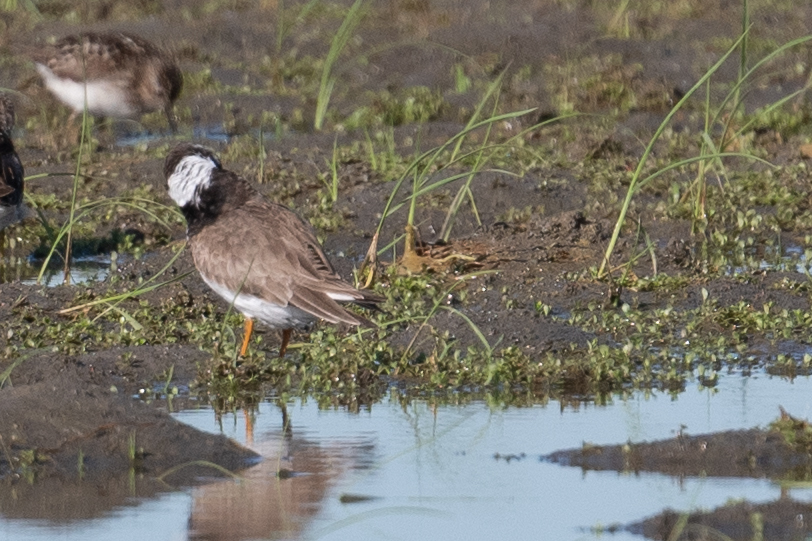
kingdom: Animalia
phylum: Chordata
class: Aves
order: Charadriiformes
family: Charadriidae
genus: Charadrius
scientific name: Charadrius semipalmatus
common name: Semipalmated plover
